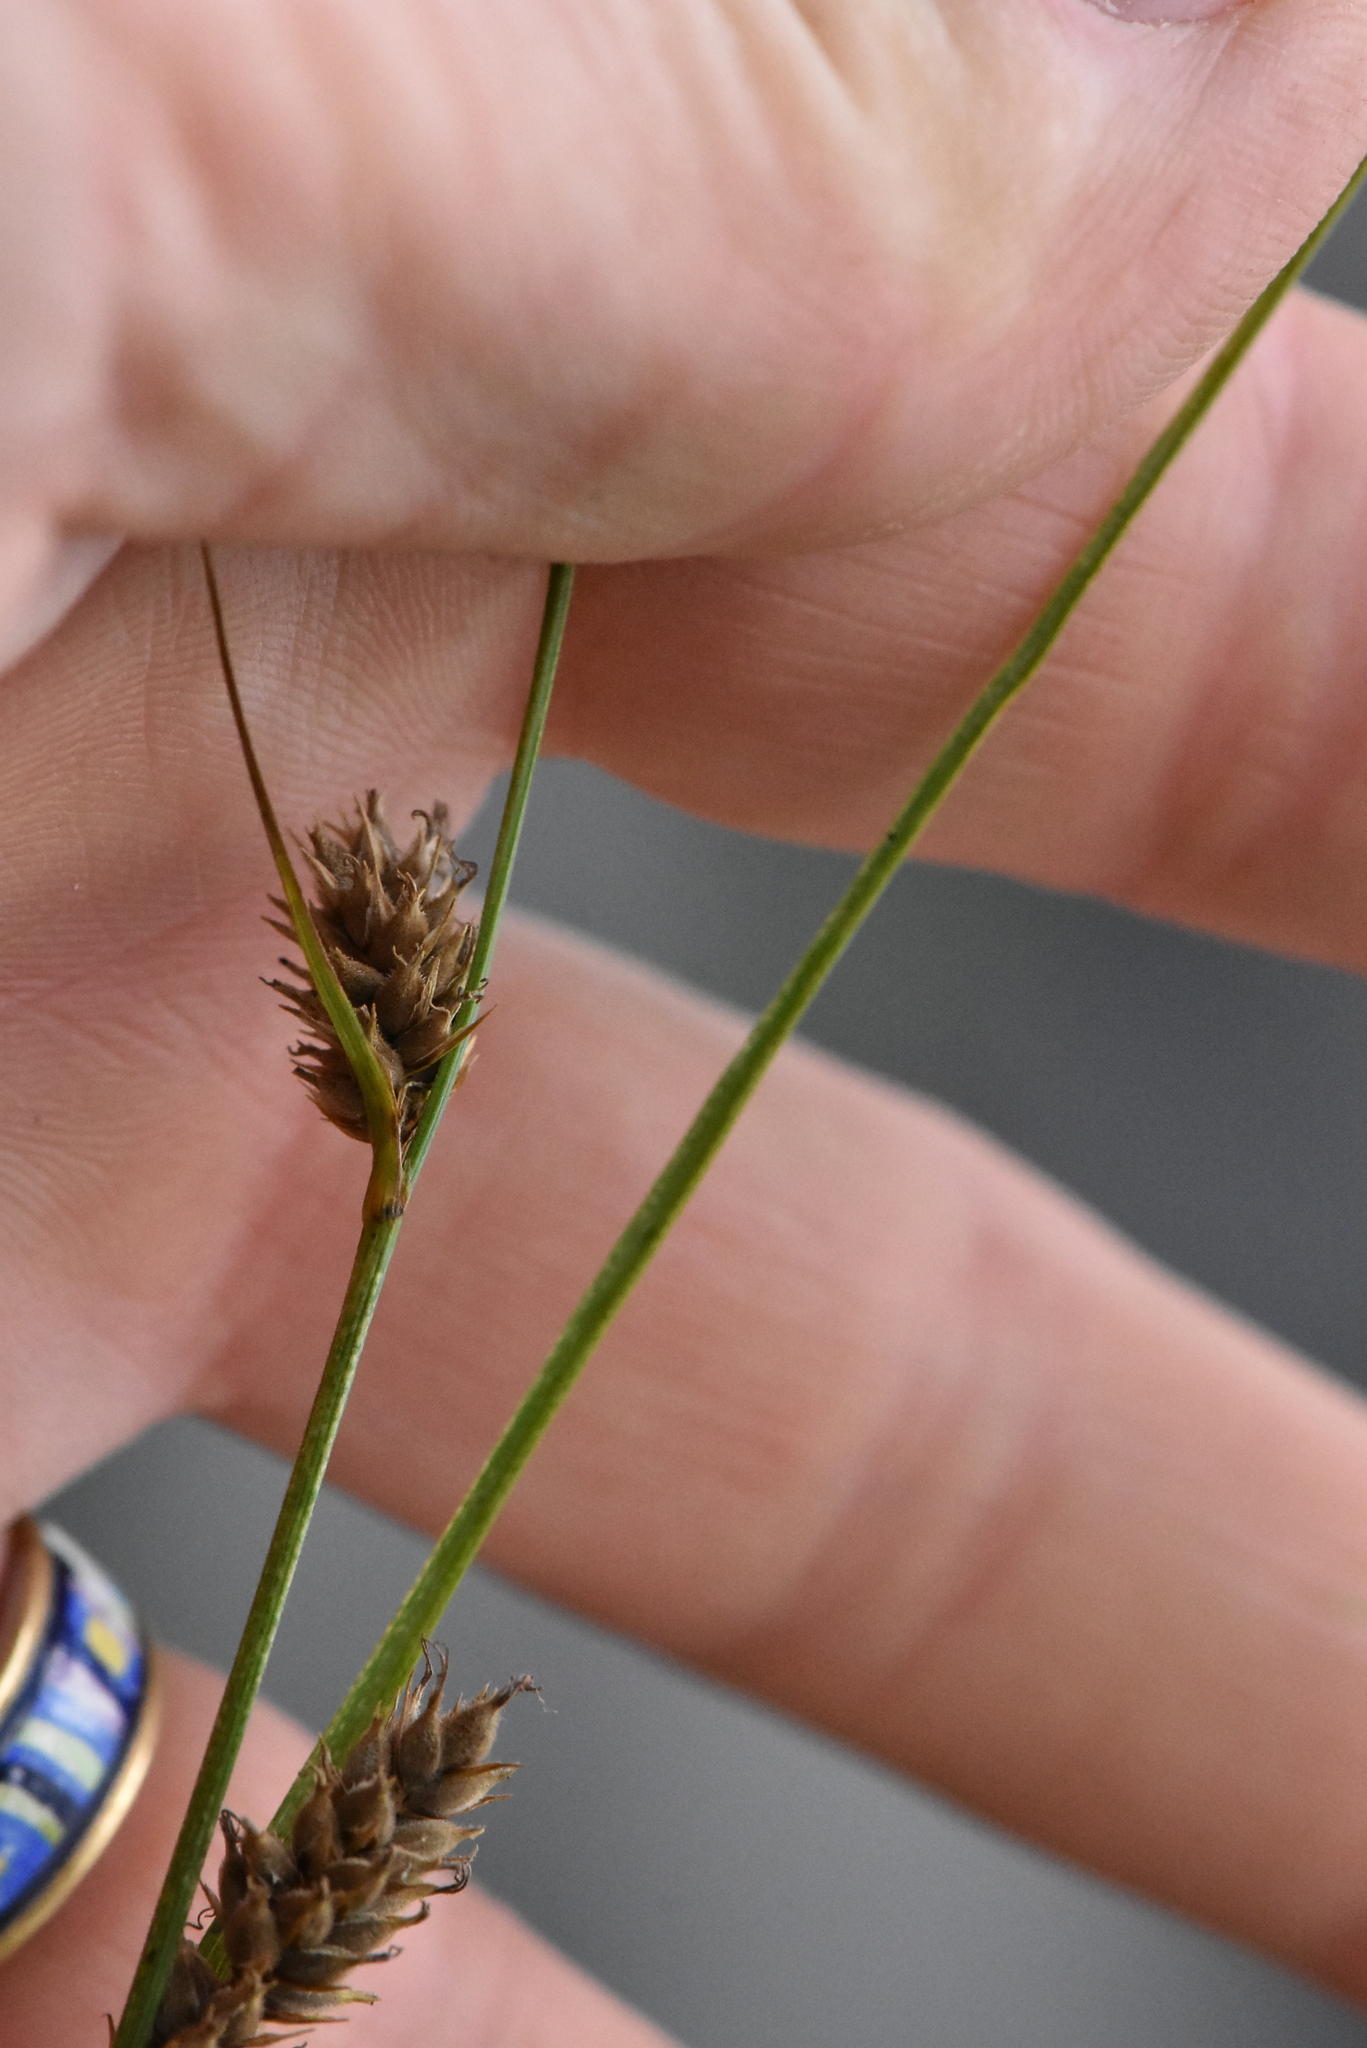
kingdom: Plantae
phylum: Tracheophyta
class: Liliopsida
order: Poales
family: Cyperaceae
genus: Carex
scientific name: Carex lasiocarpa
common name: Slender sedge
